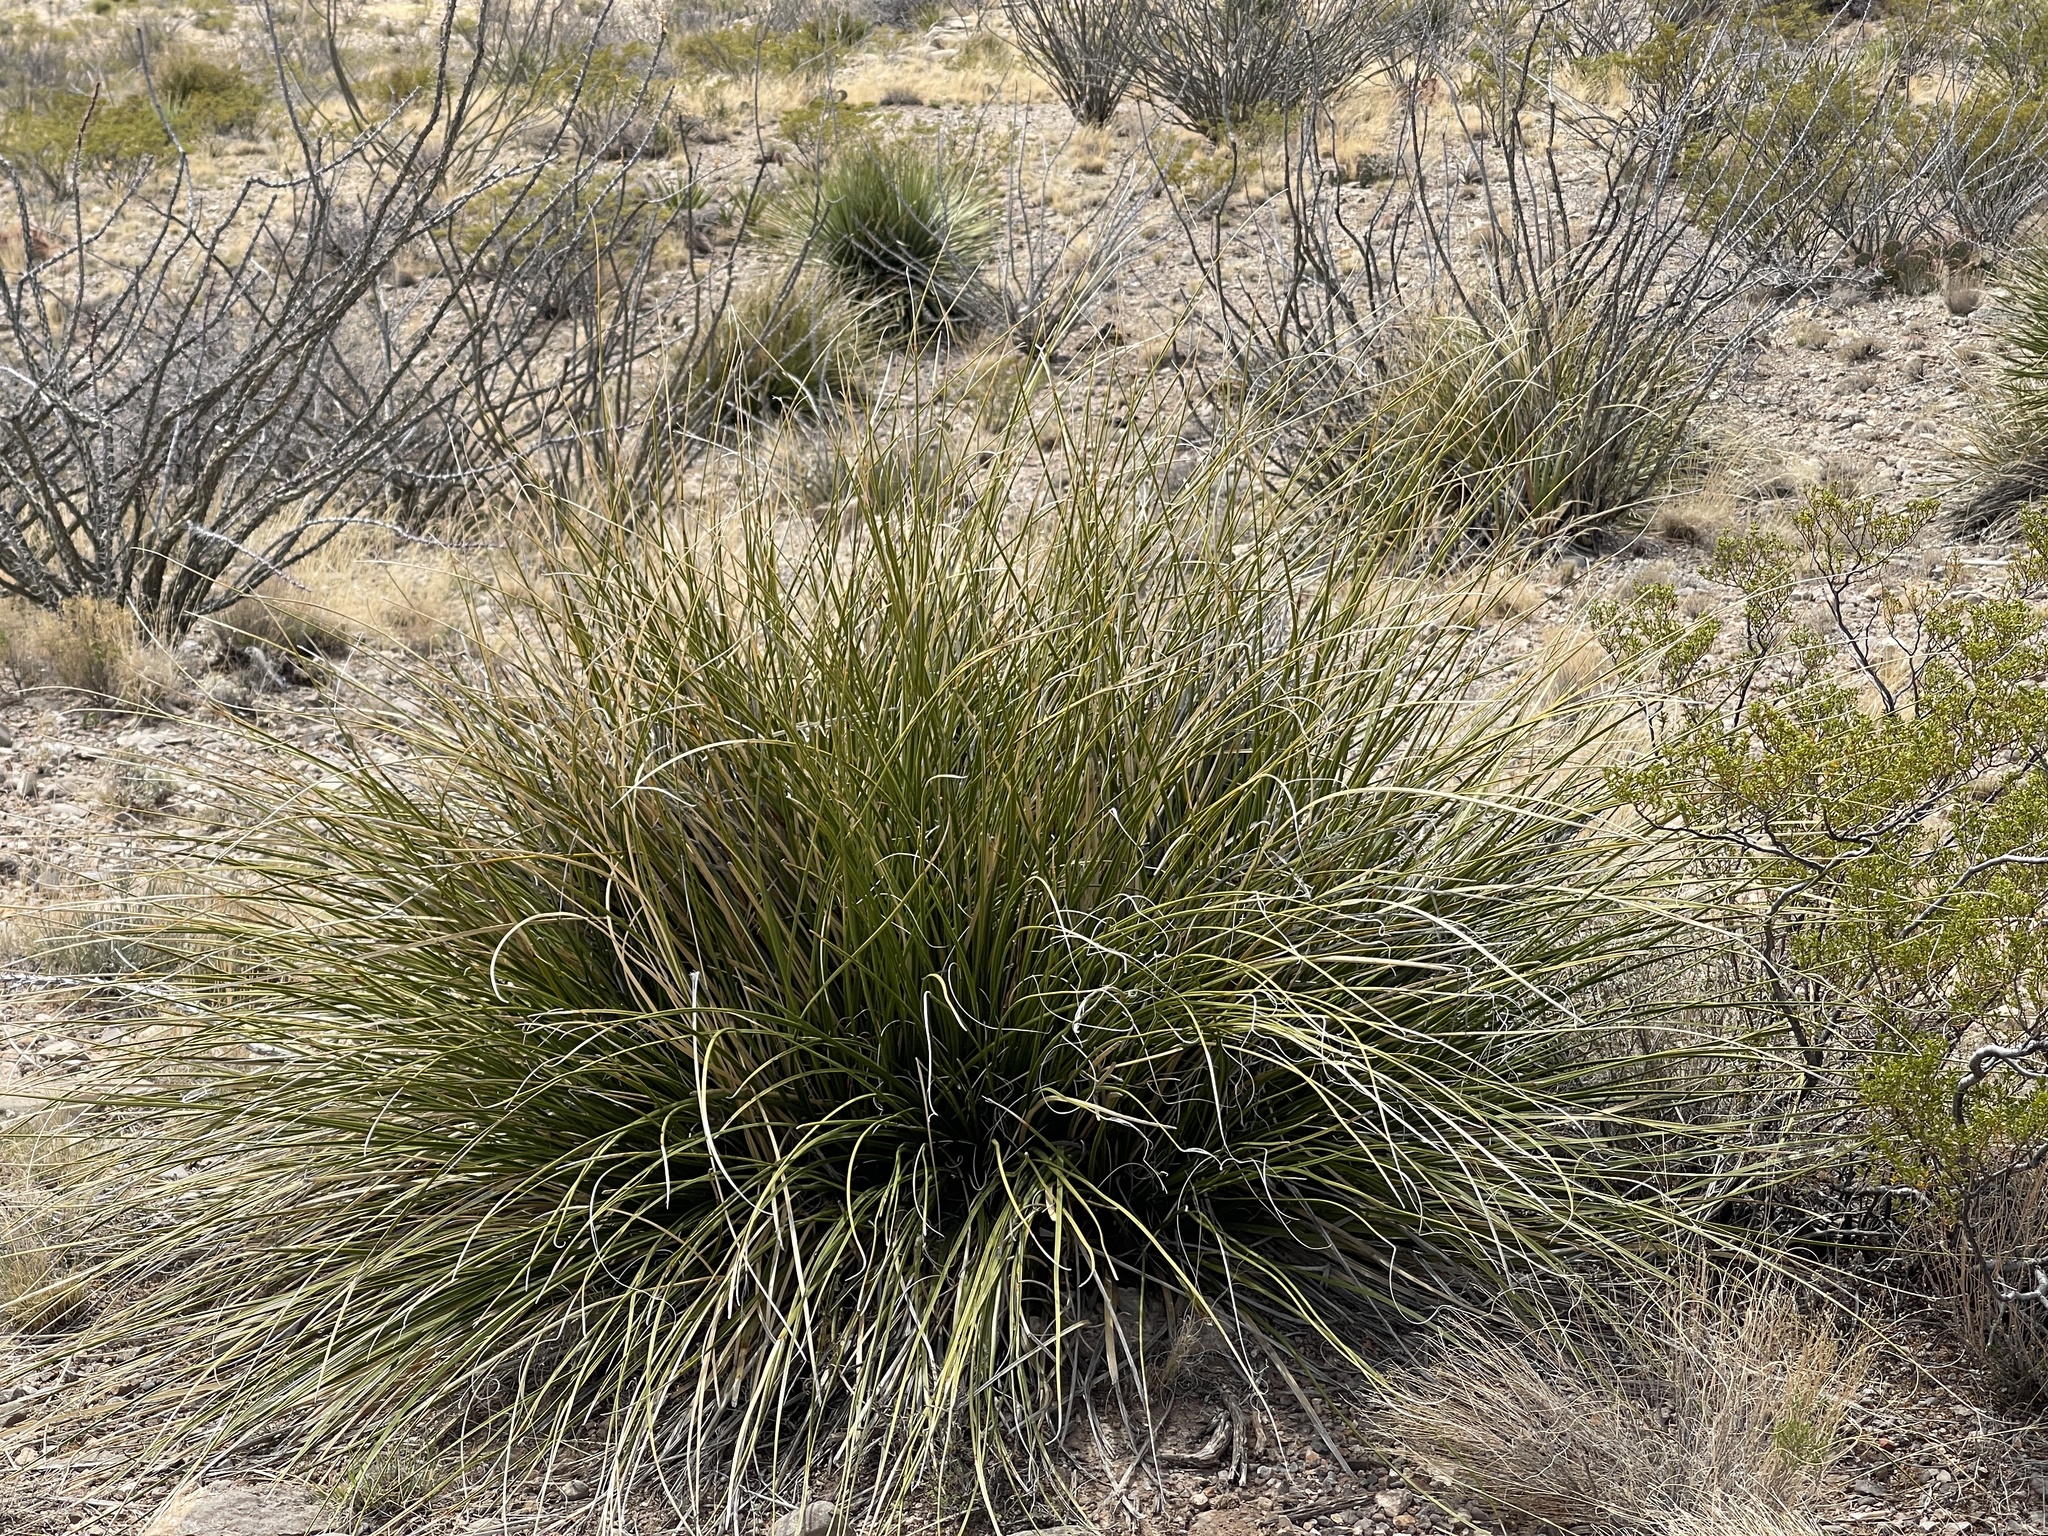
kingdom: Plantae
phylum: Tracheophyta
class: Liliopsida
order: Asparagales
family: Asparagaceae
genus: Nolina
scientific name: Nolina texana
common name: Texas sacahuiste
